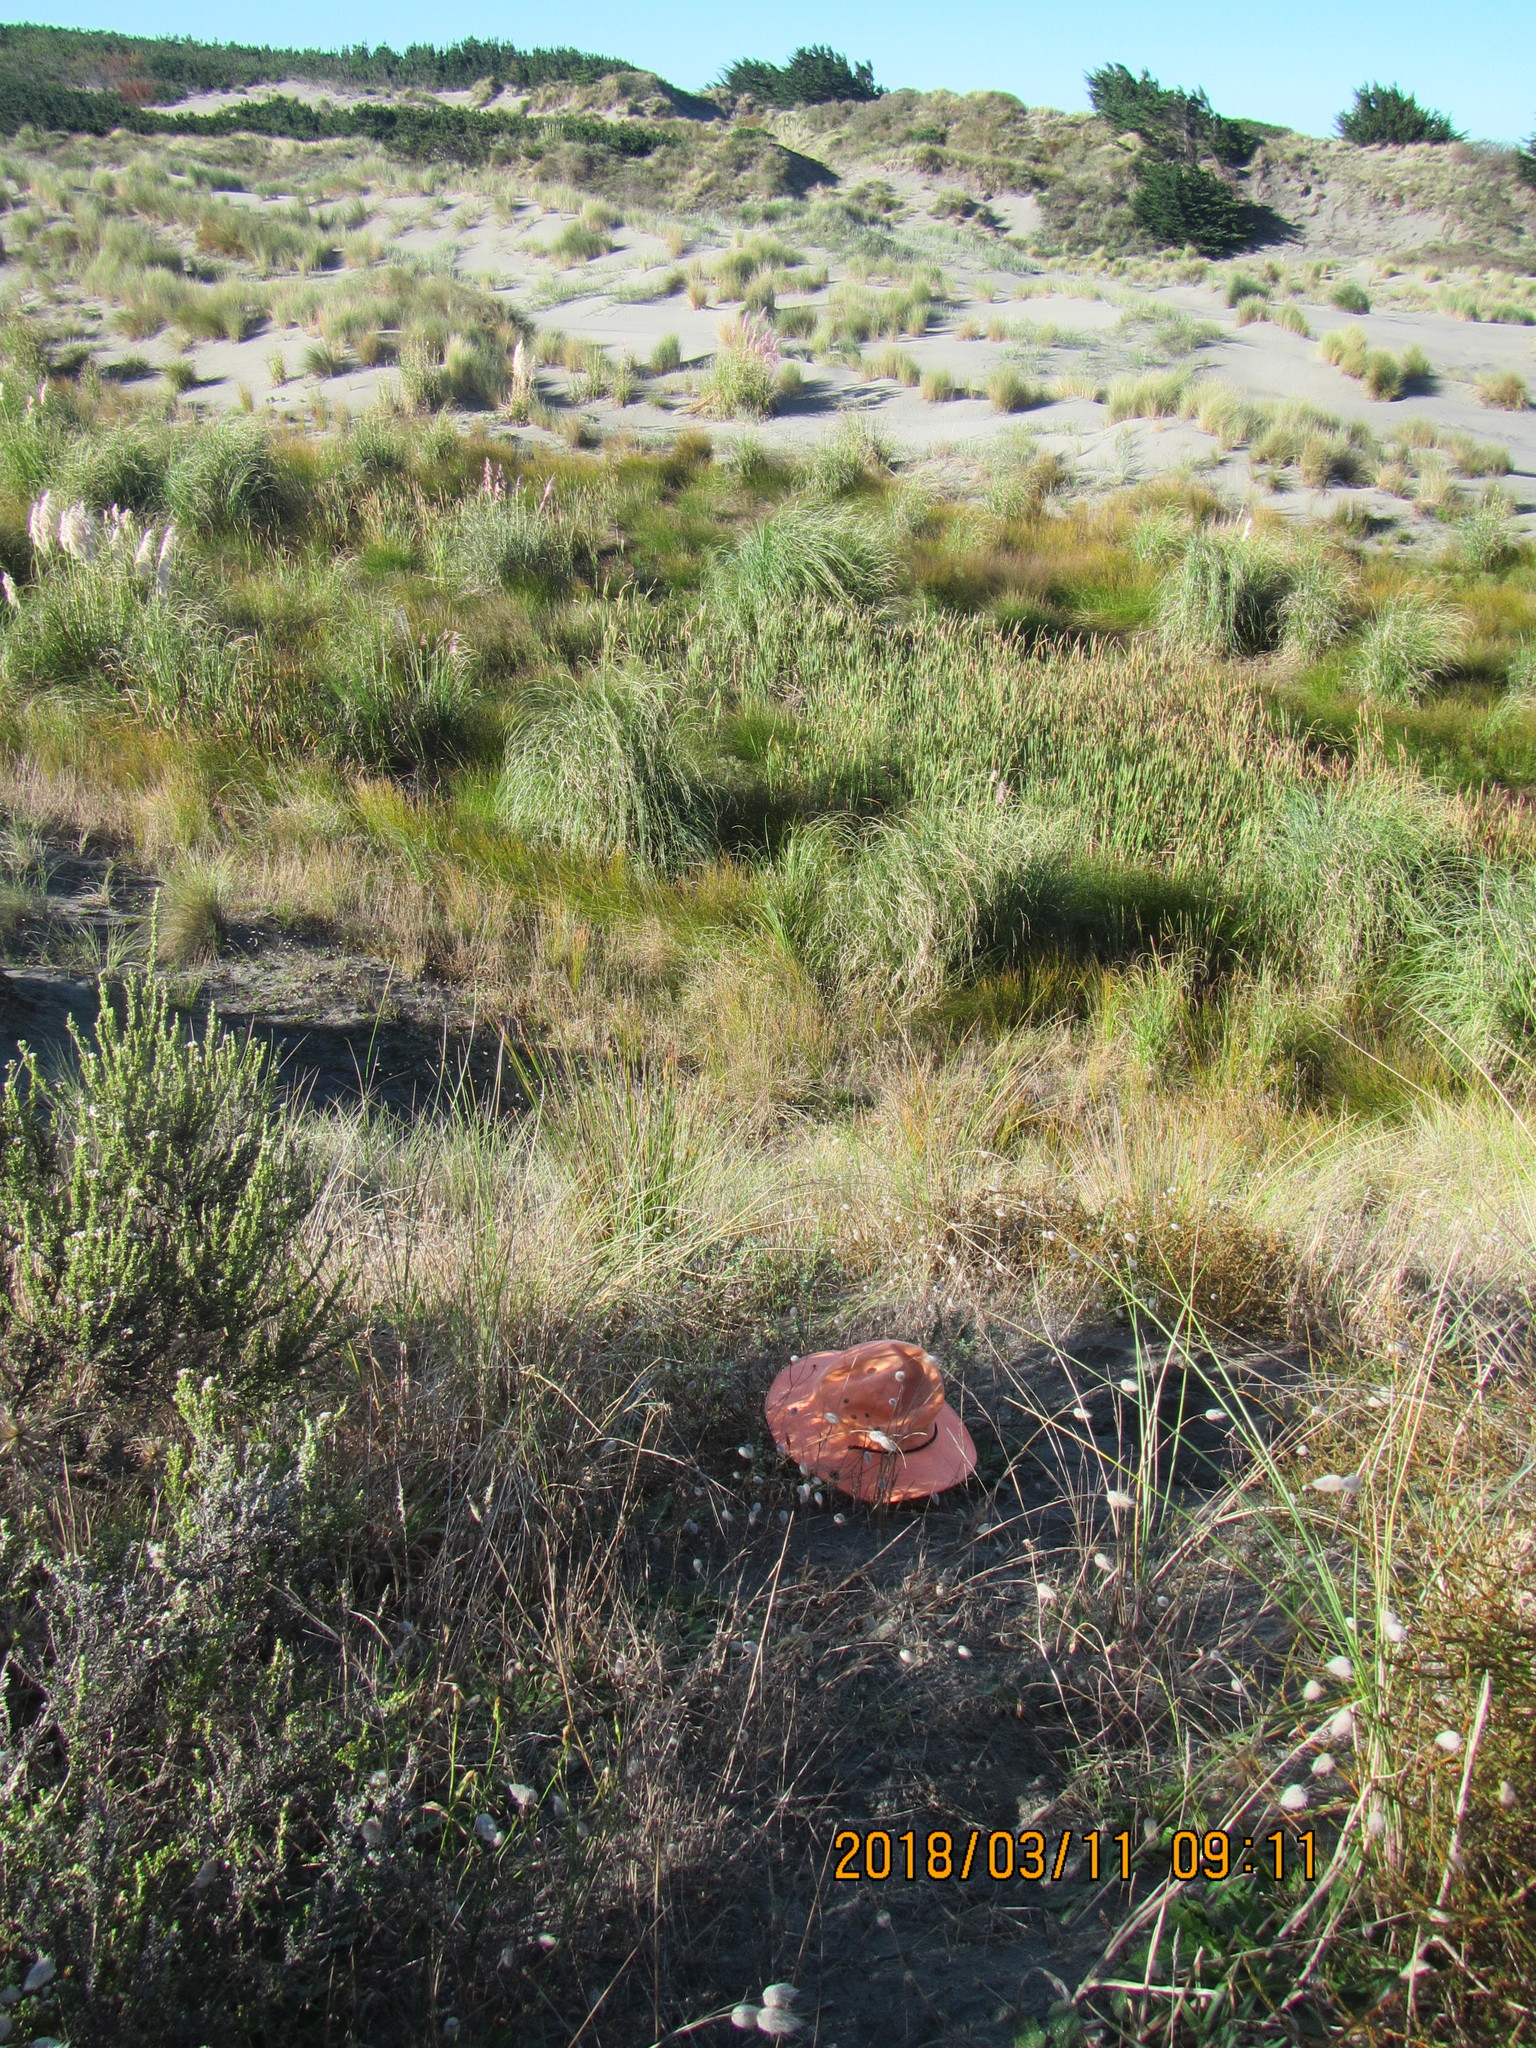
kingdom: Plantae
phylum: Tracheophyta
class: Magnoliopsida
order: Malvales
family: Thymelaeaceae
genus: Pimelea
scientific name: Pimelea villosa
